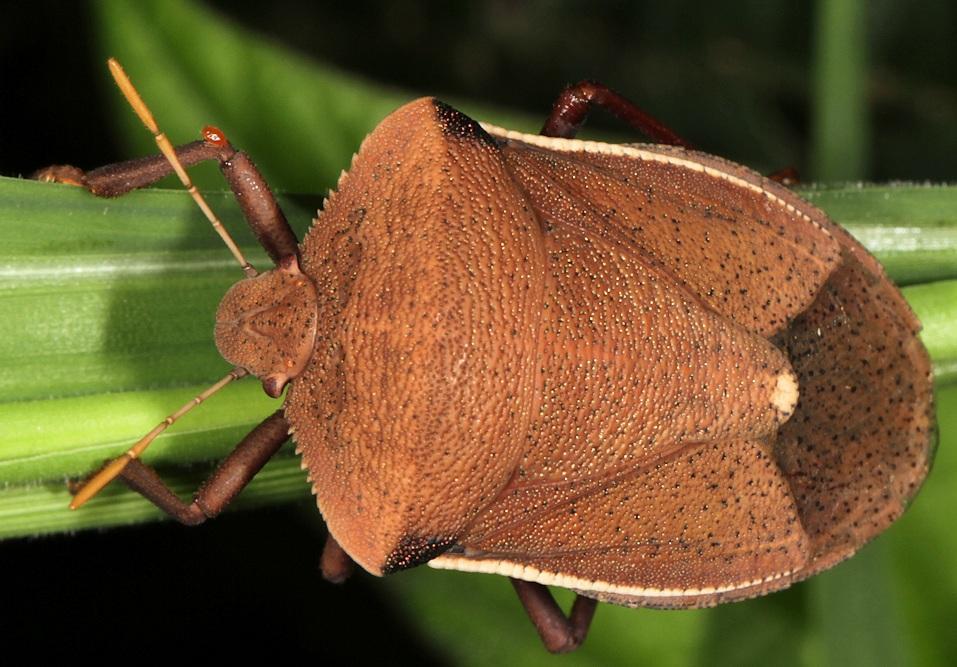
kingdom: Animalia
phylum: Arthropoda
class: Insecta
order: Hemiptera
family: Pentatomidae
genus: Basicryptus
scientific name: Basicryptus costalis
